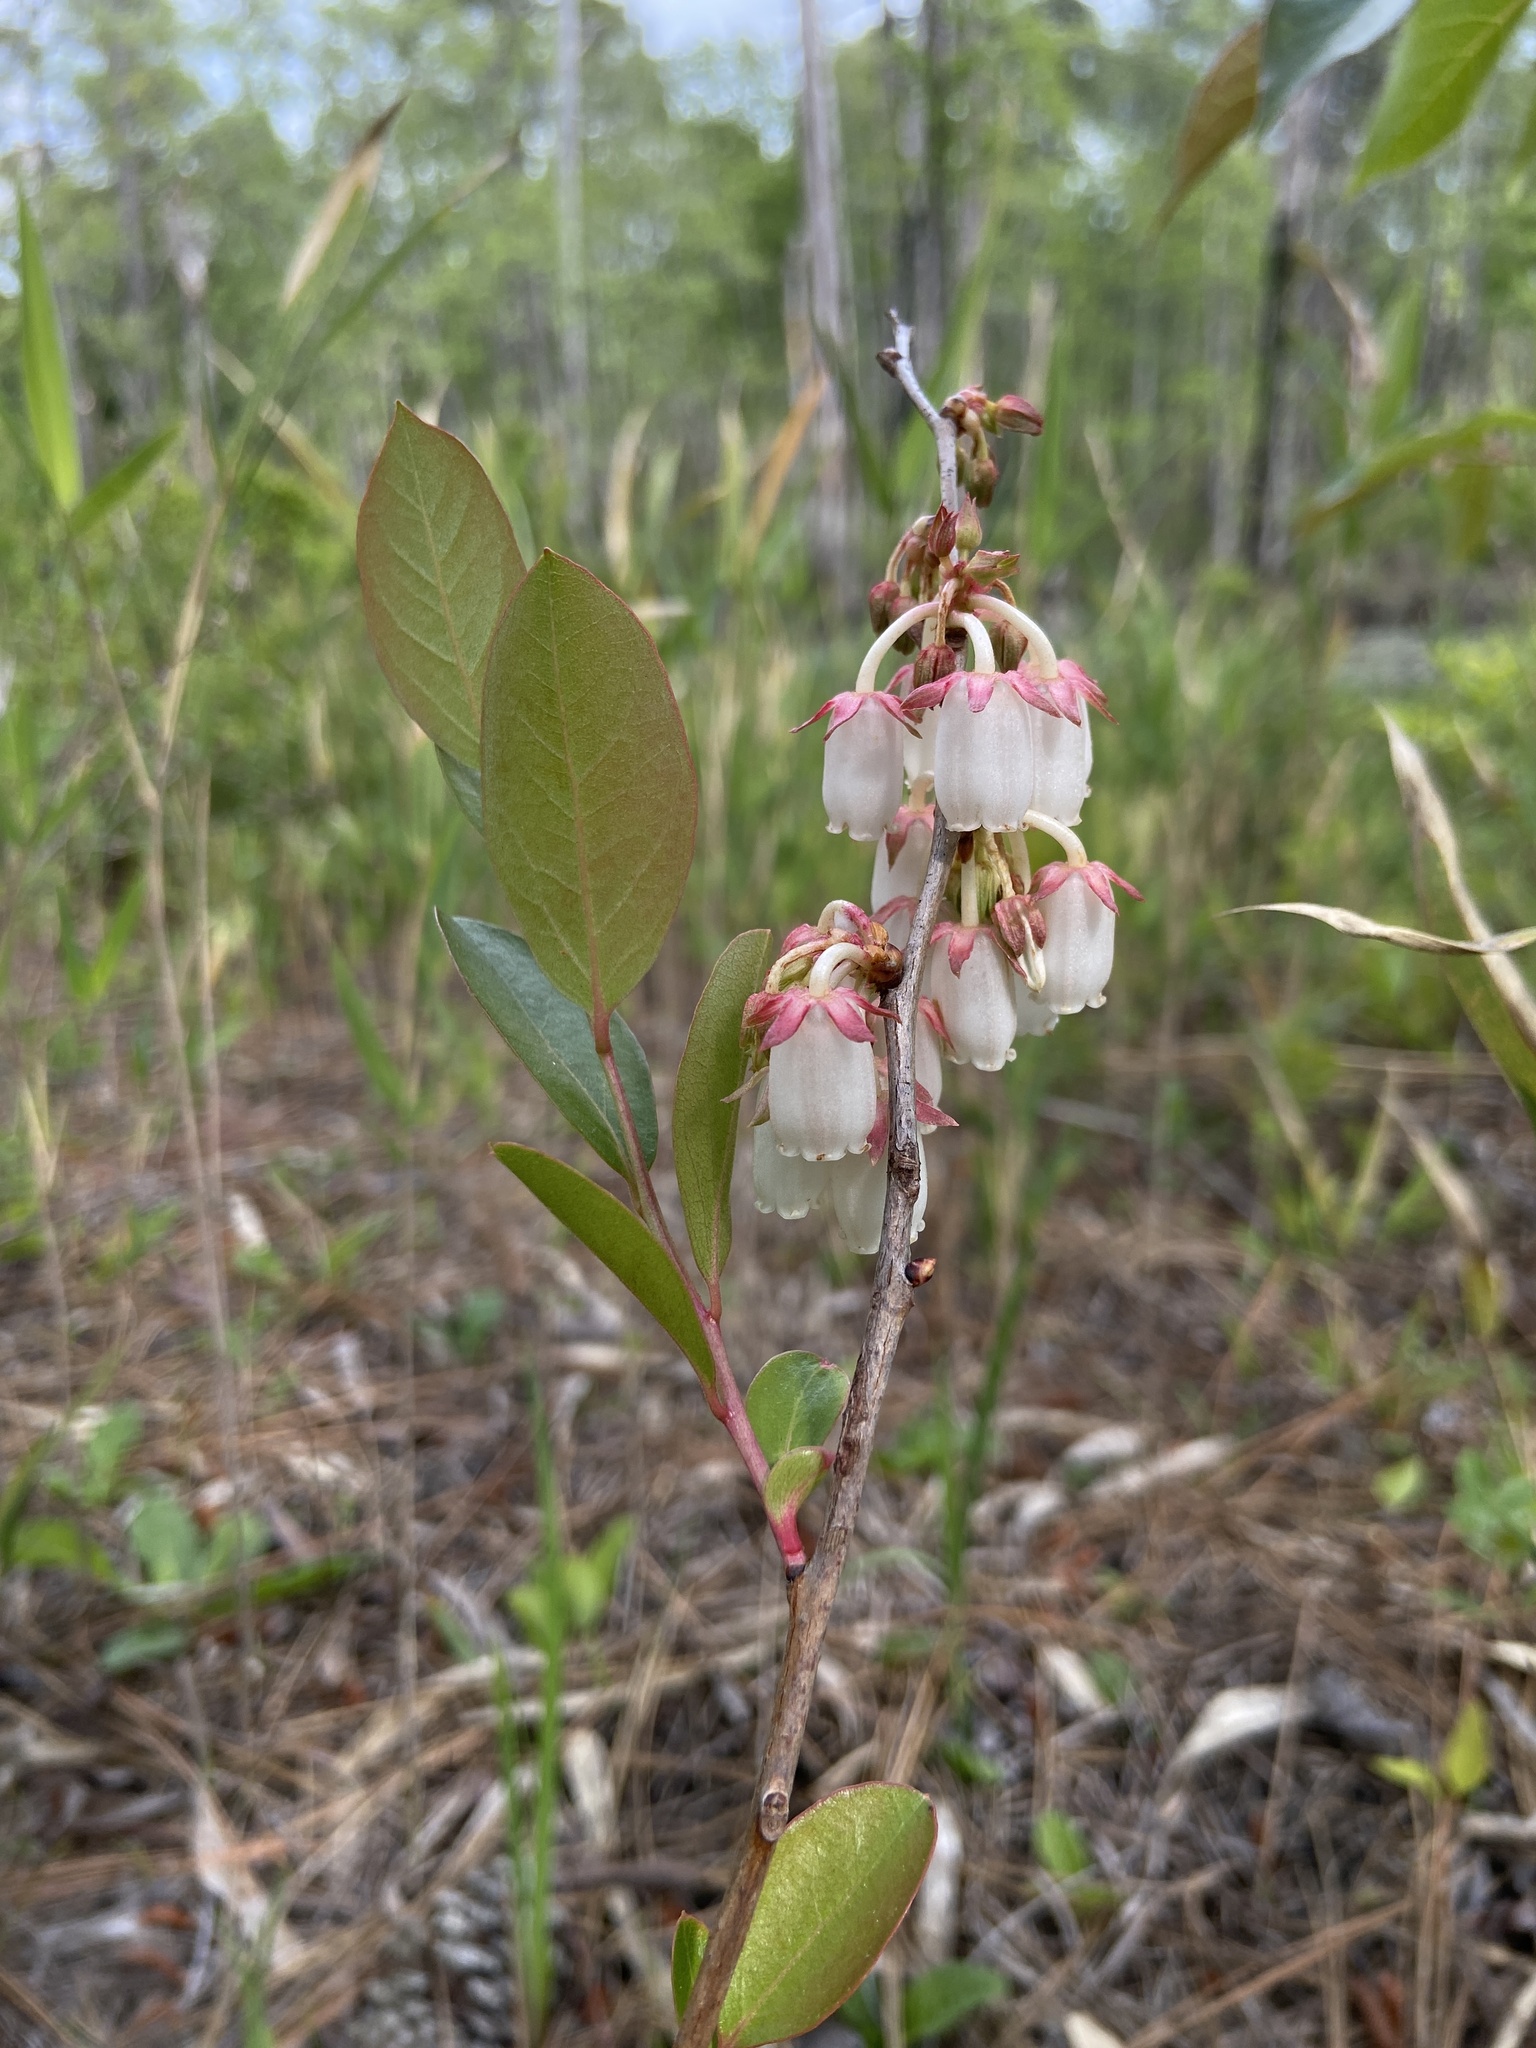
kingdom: Plantae
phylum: Tracheophyta
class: Magnoliopsida
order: Ericales
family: Ericaceae
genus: Lyonia
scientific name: Lyonia mariana
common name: Staggerbush
